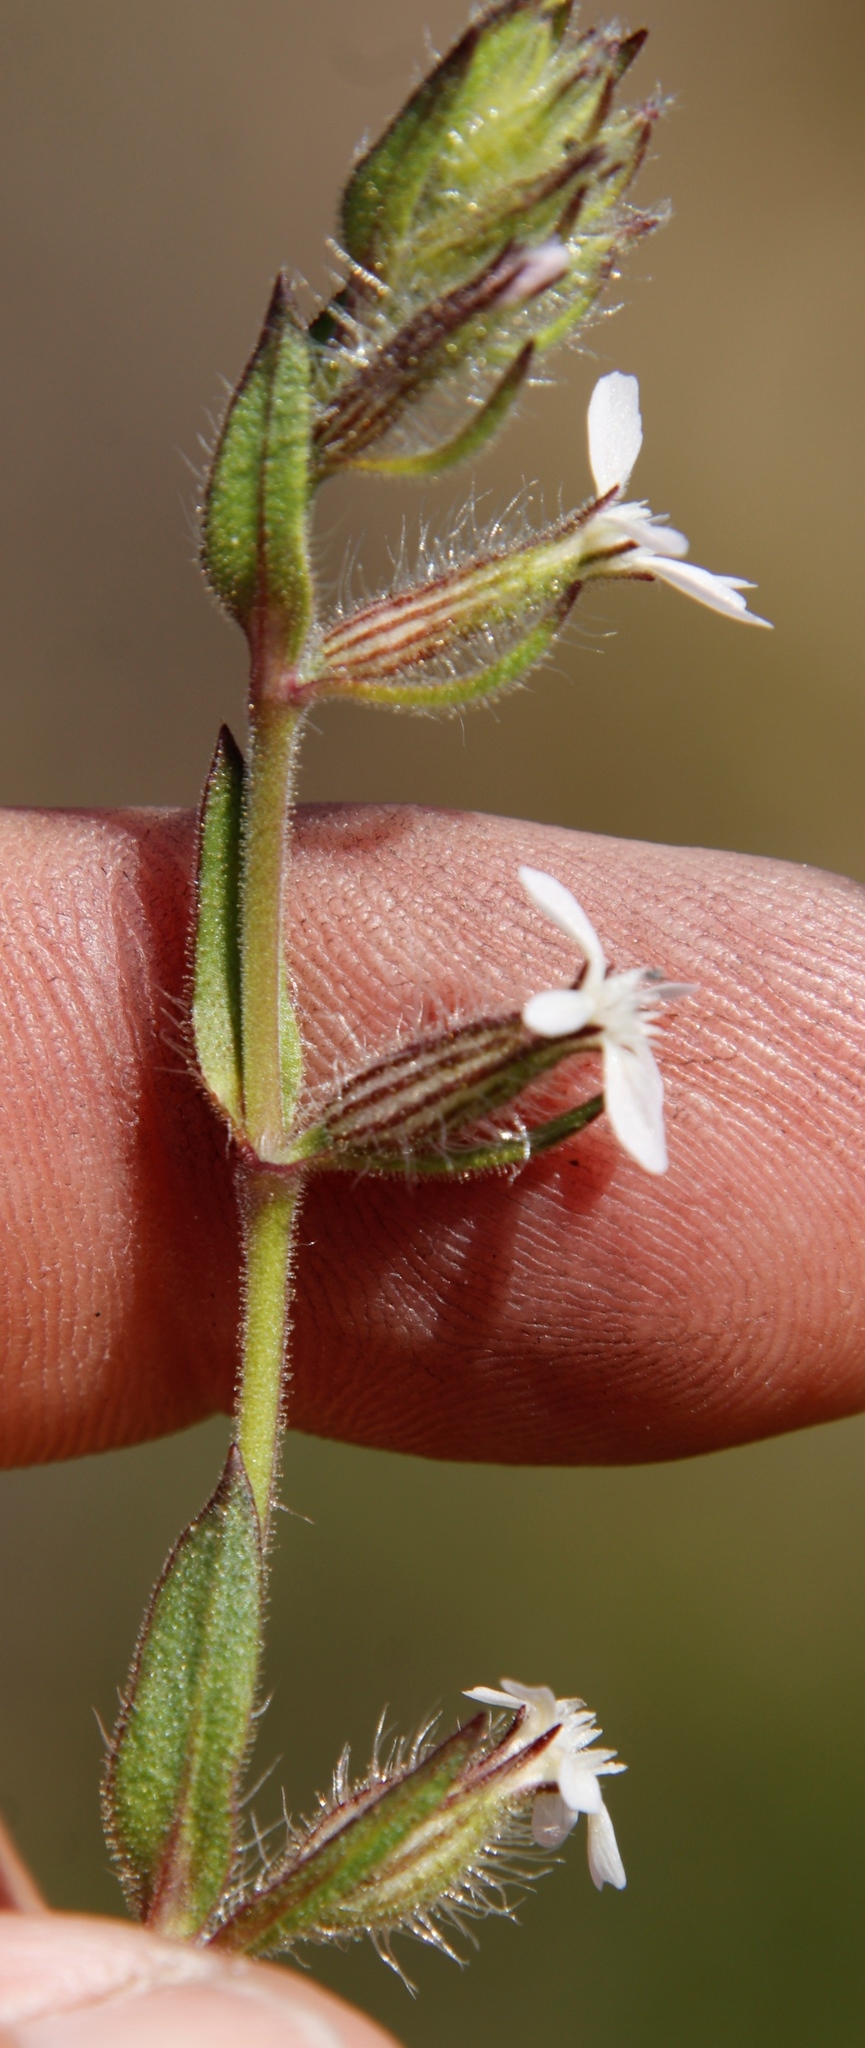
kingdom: Plantae
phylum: Tracheophyta
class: Magnoliopsida
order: Caryophyllales
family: Caryophyllaceae
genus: Silene
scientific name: Silene gallica
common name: Small-flowered catchfly
